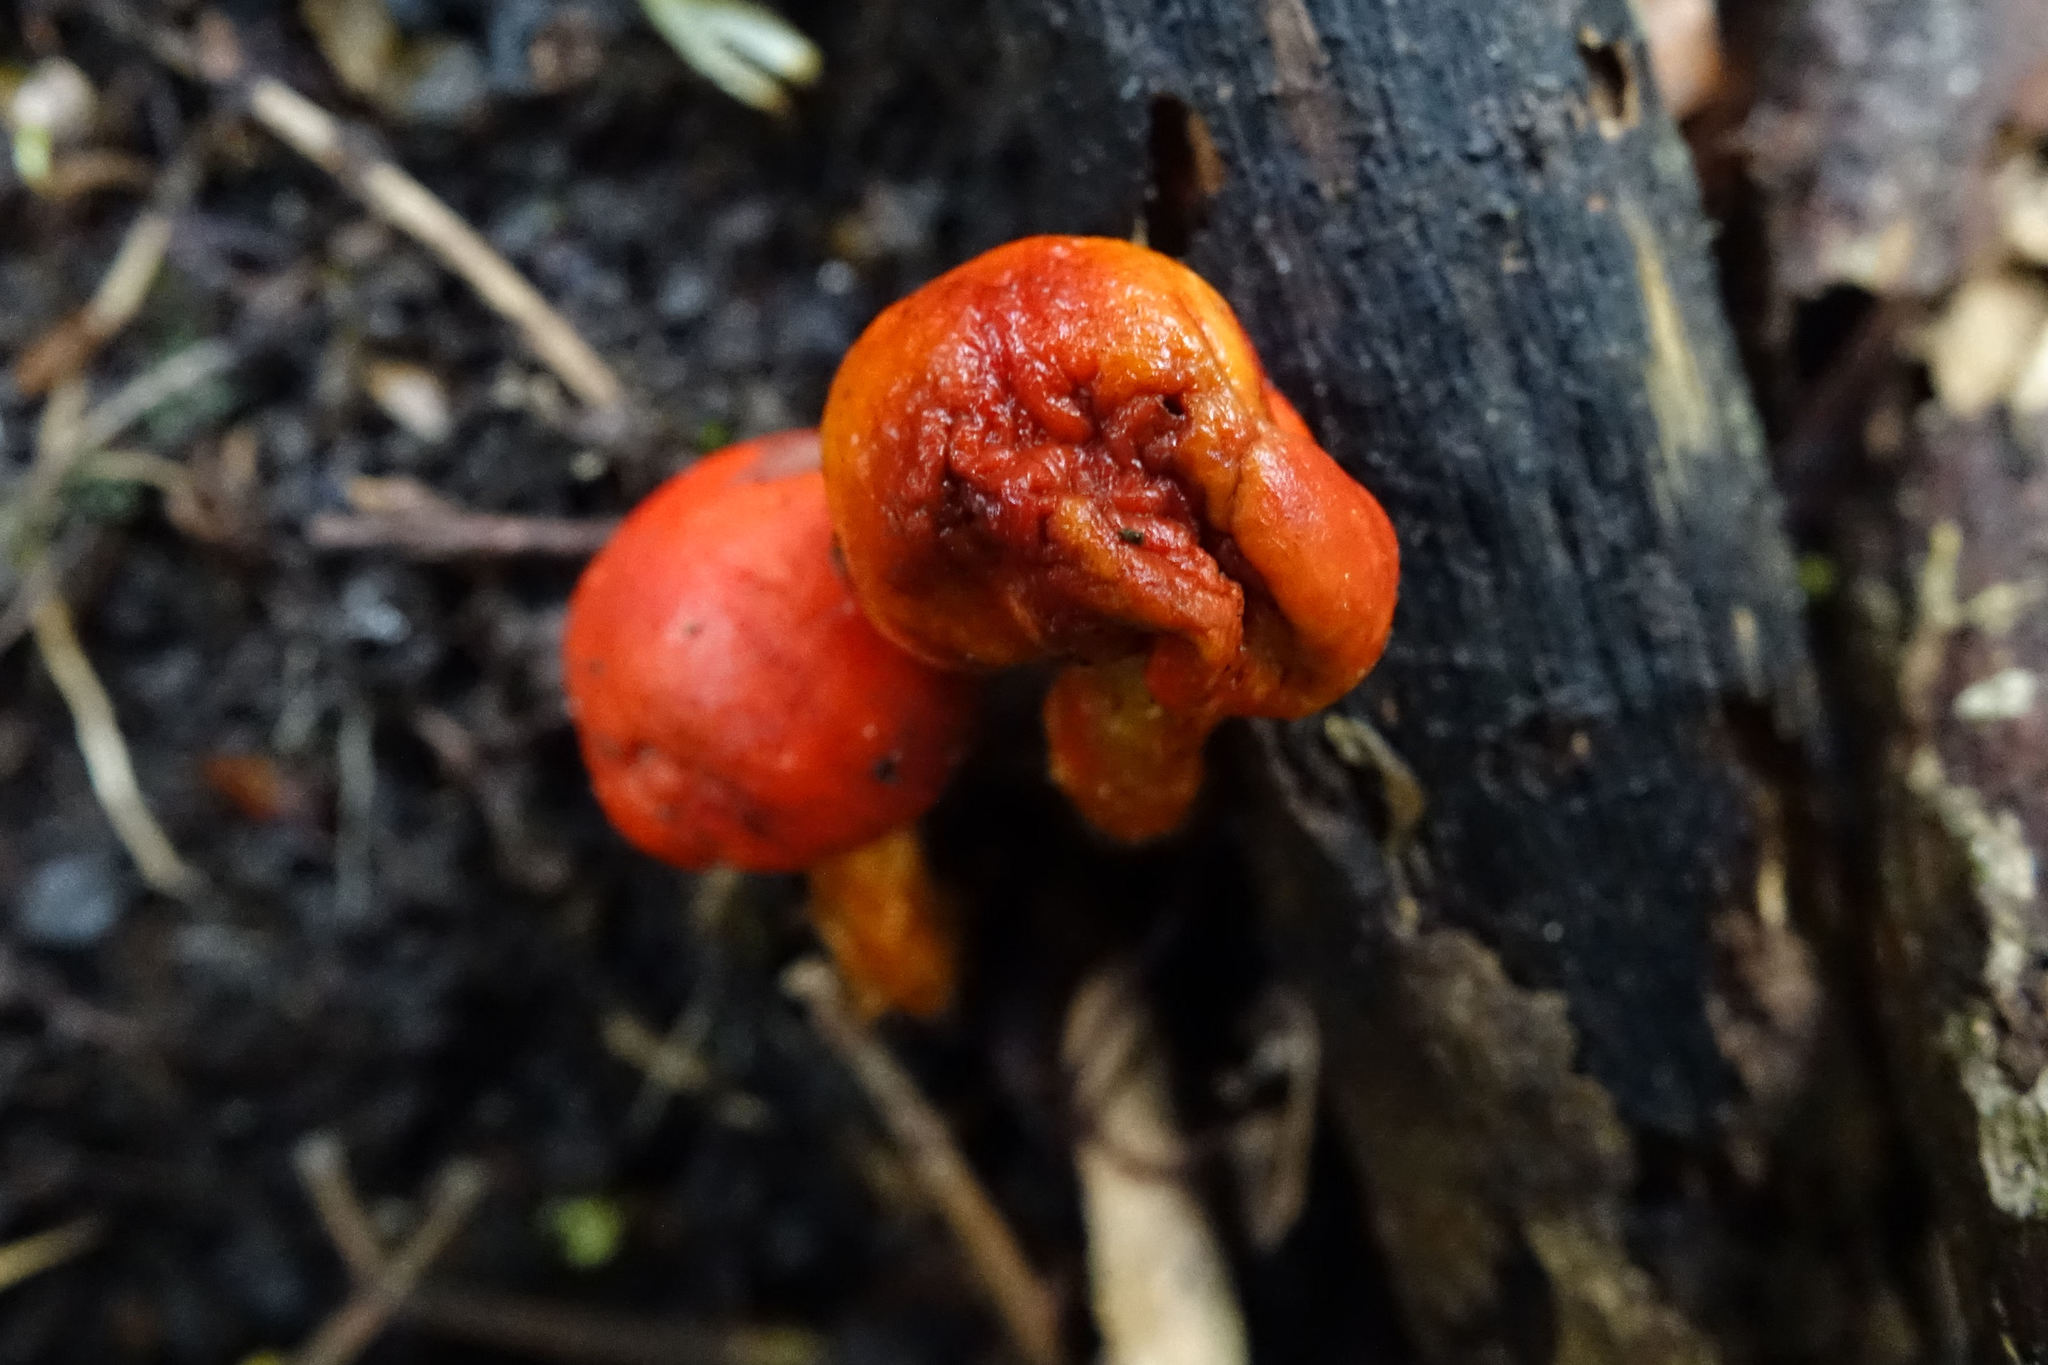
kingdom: Fungi
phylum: Basidiomycota
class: Agaricomycetes
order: Agaricales
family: Strophariaceae
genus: Leratiomyces
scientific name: Leratiomyces erythrocephalus
